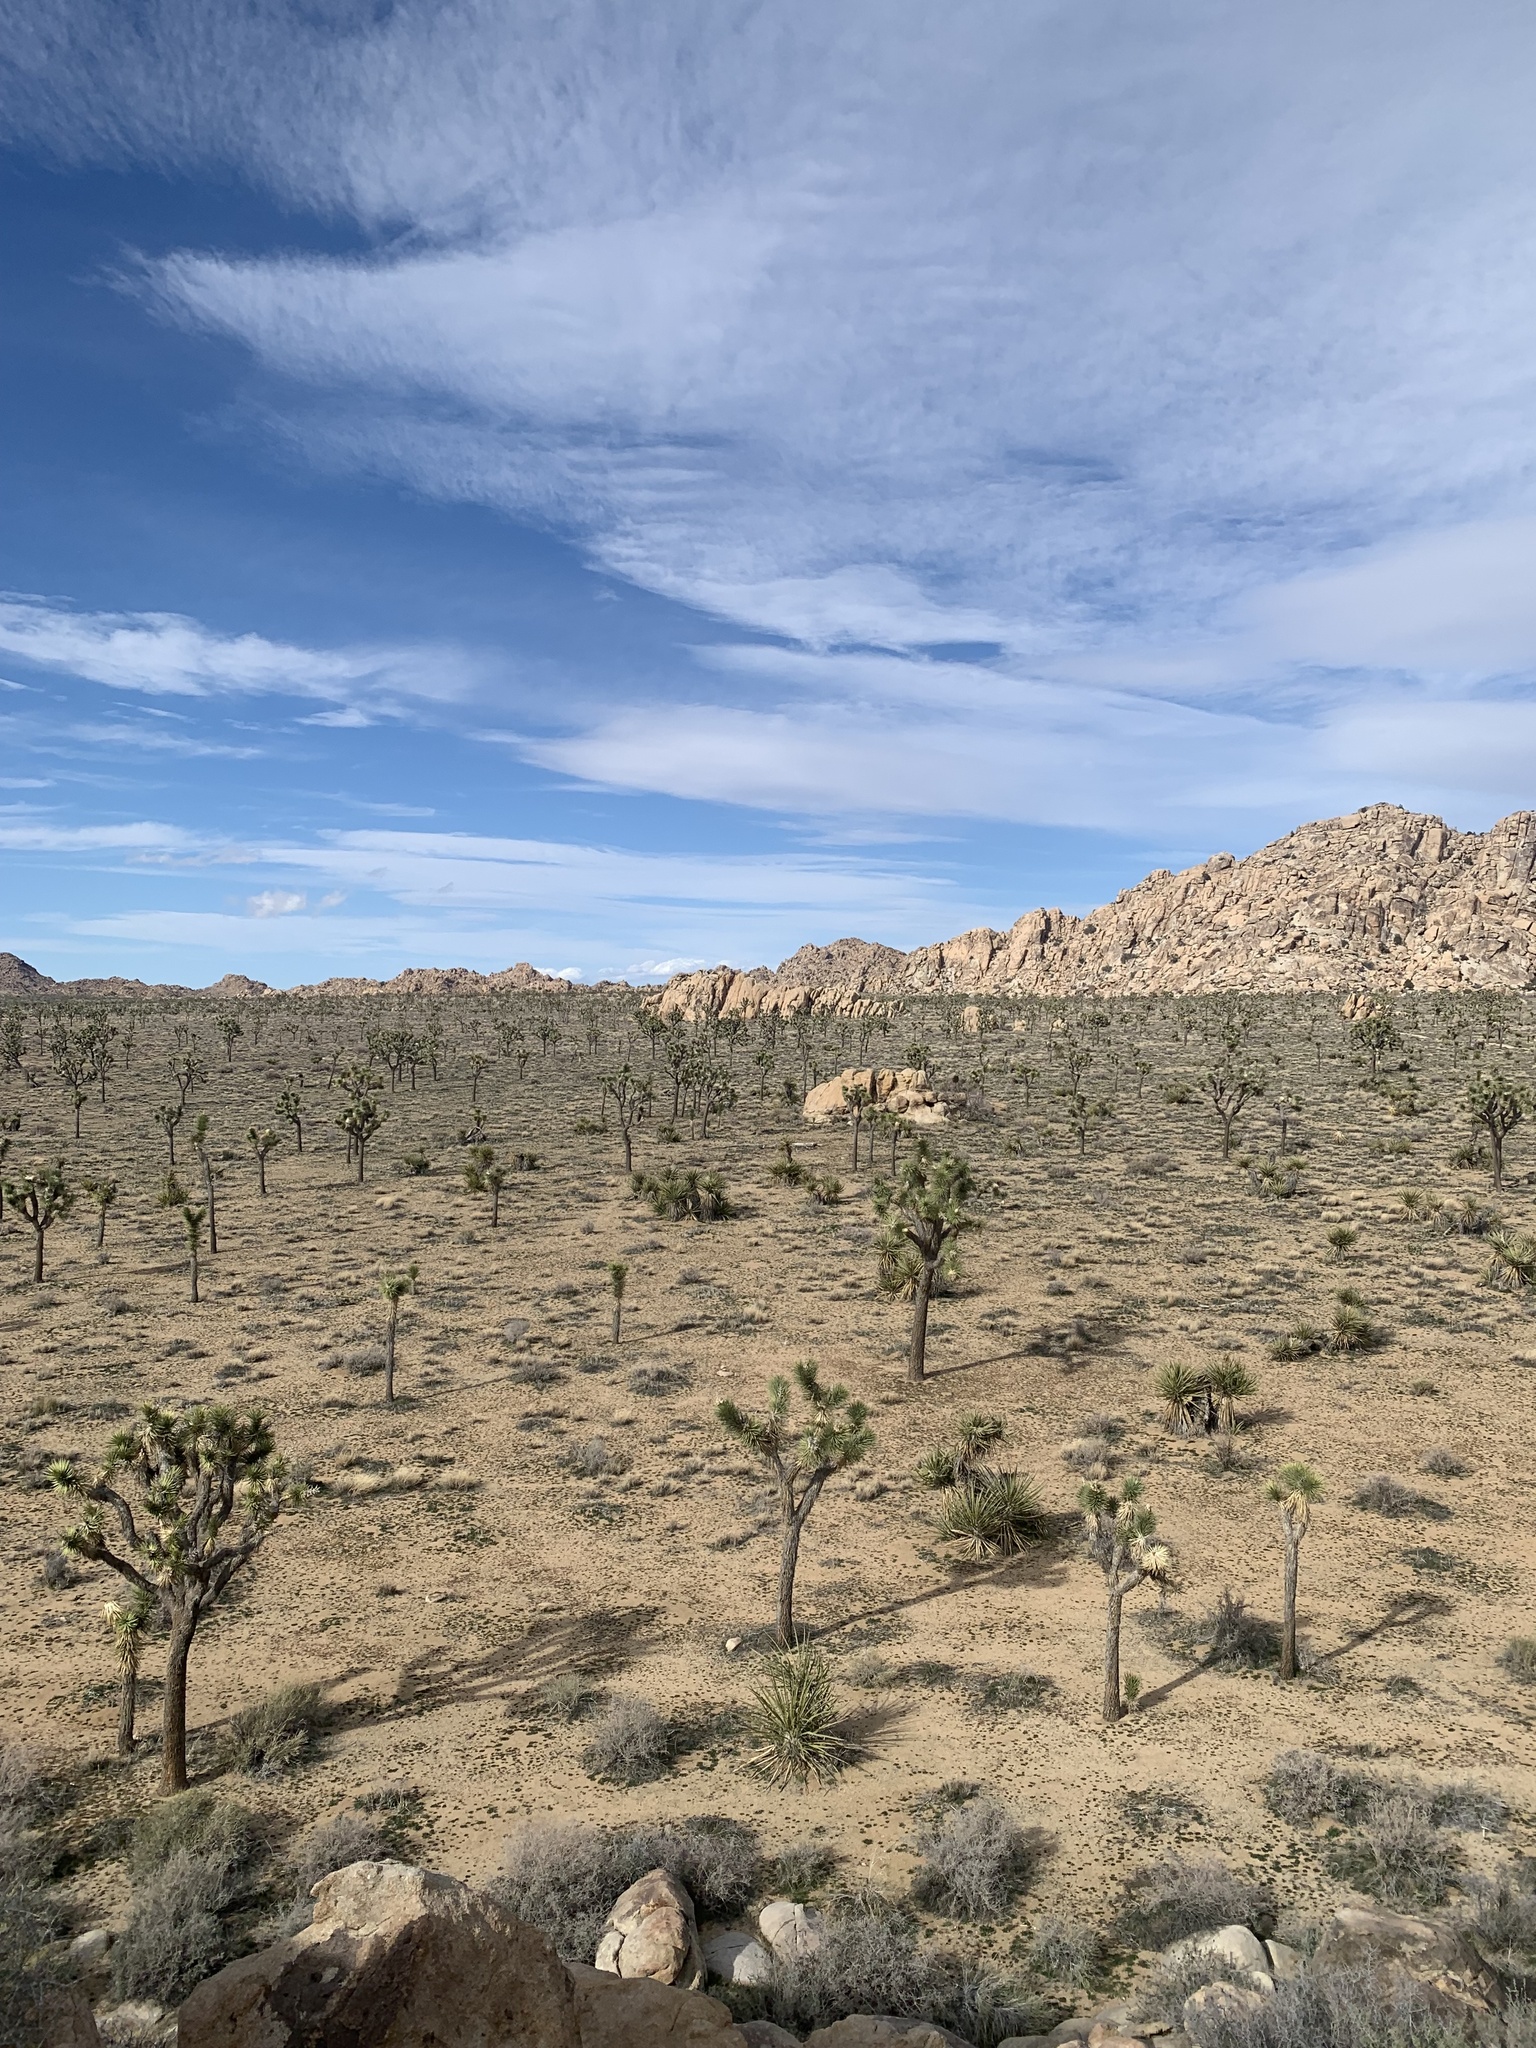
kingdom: Plantae
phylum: Tracheophyta
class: Liliopsida
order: Asparagales
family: Asparagaceae
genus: Yucca
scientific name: Yucca brevifolia
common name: Joshua tree
